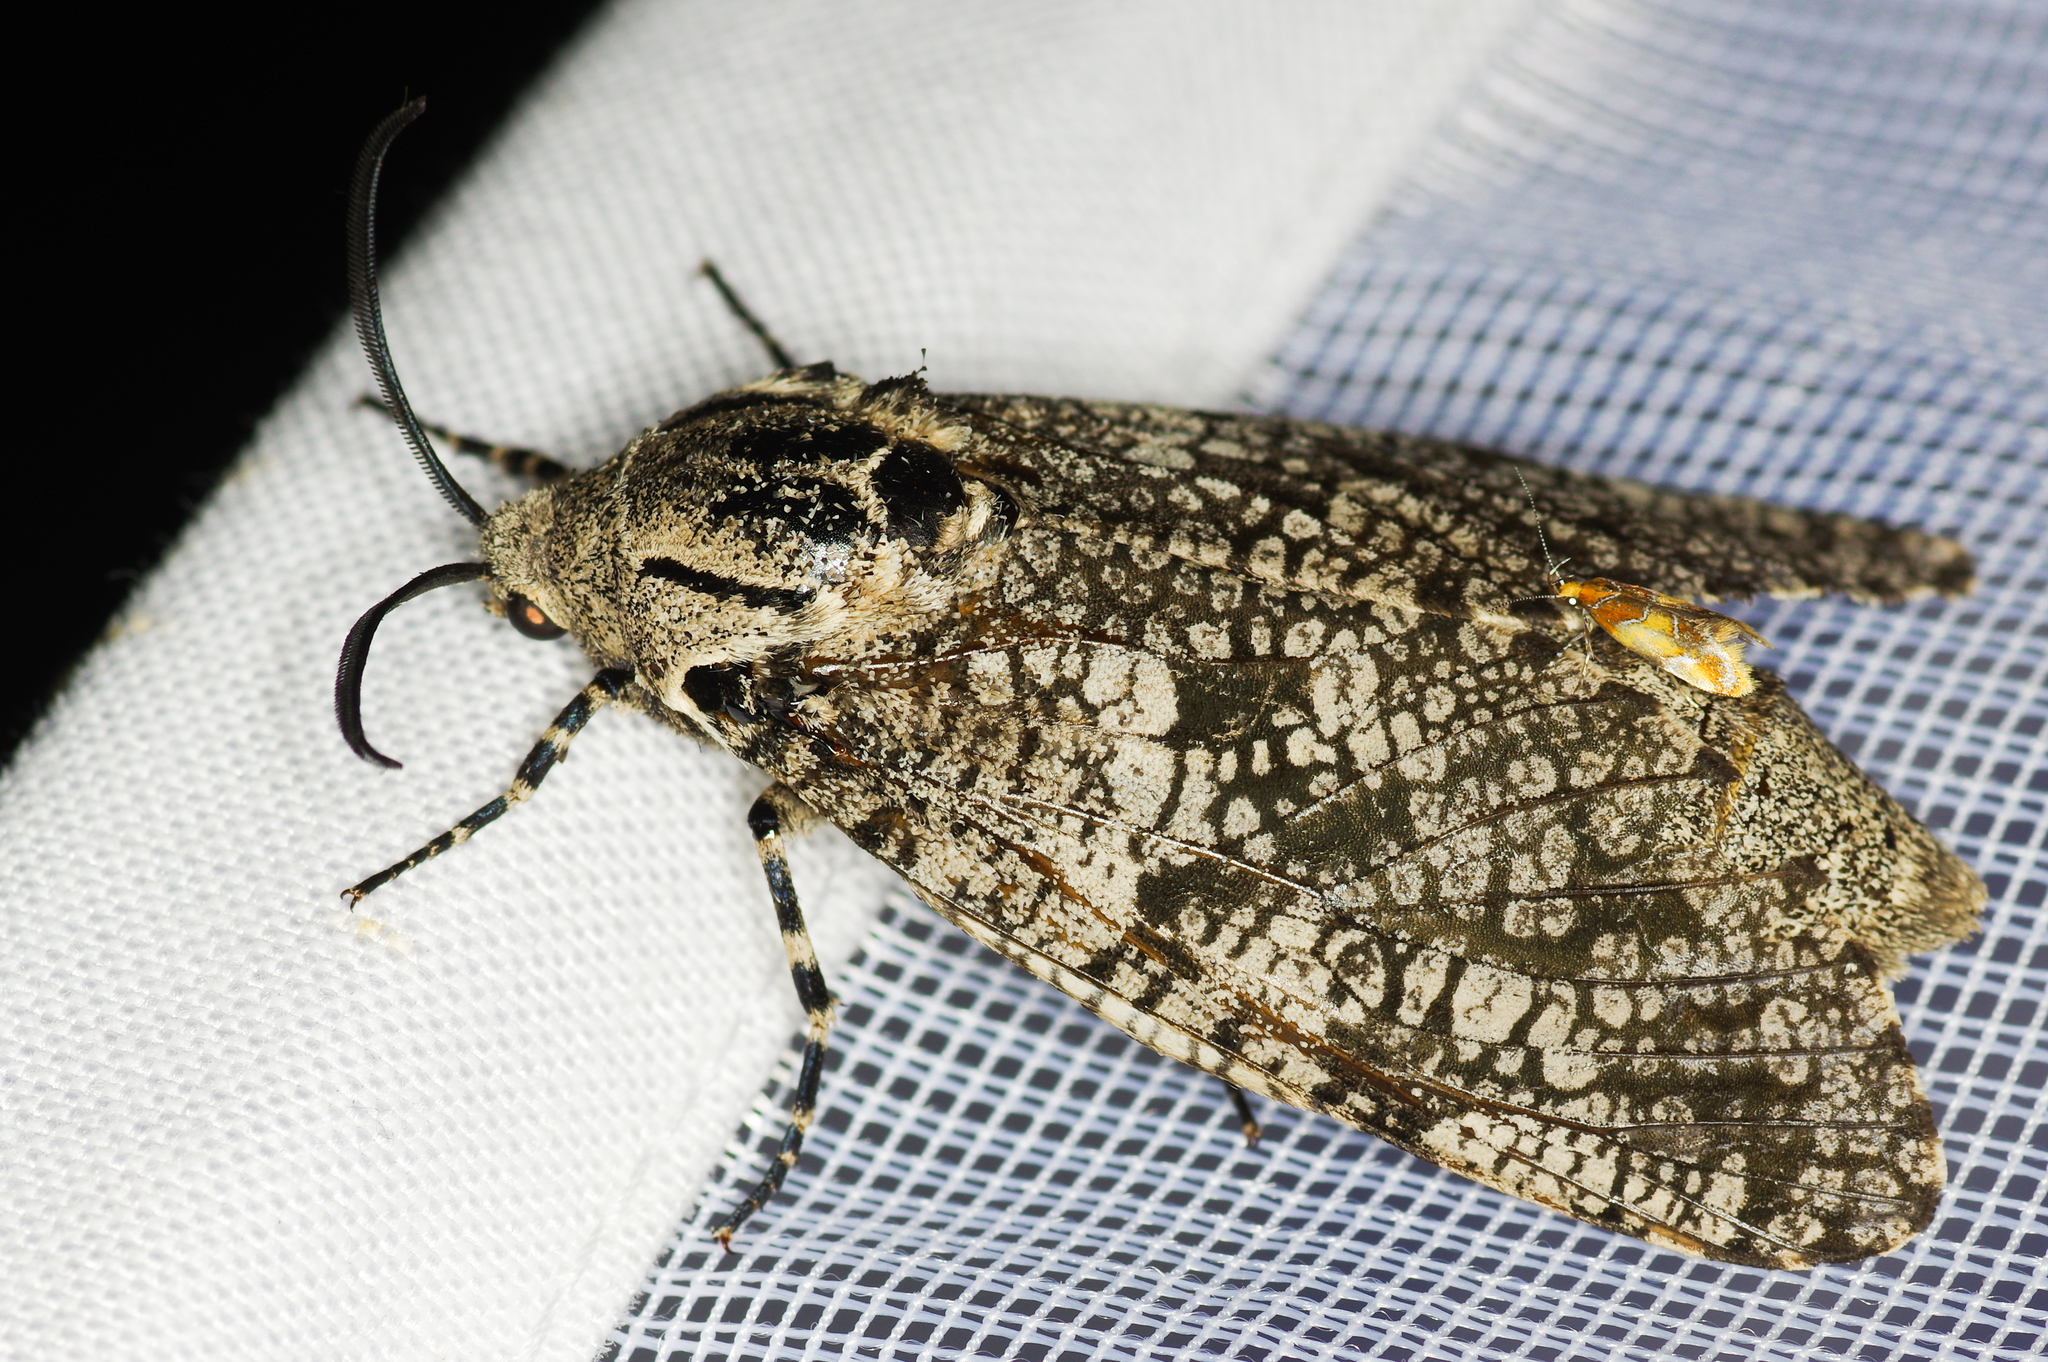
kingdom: Animalia
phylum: Arthropoda
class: Insecta
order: Lepidoptera
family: Cossidae
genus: Prionoxystus
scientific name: Prionoxystus robiniae
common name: Carpenterworm
